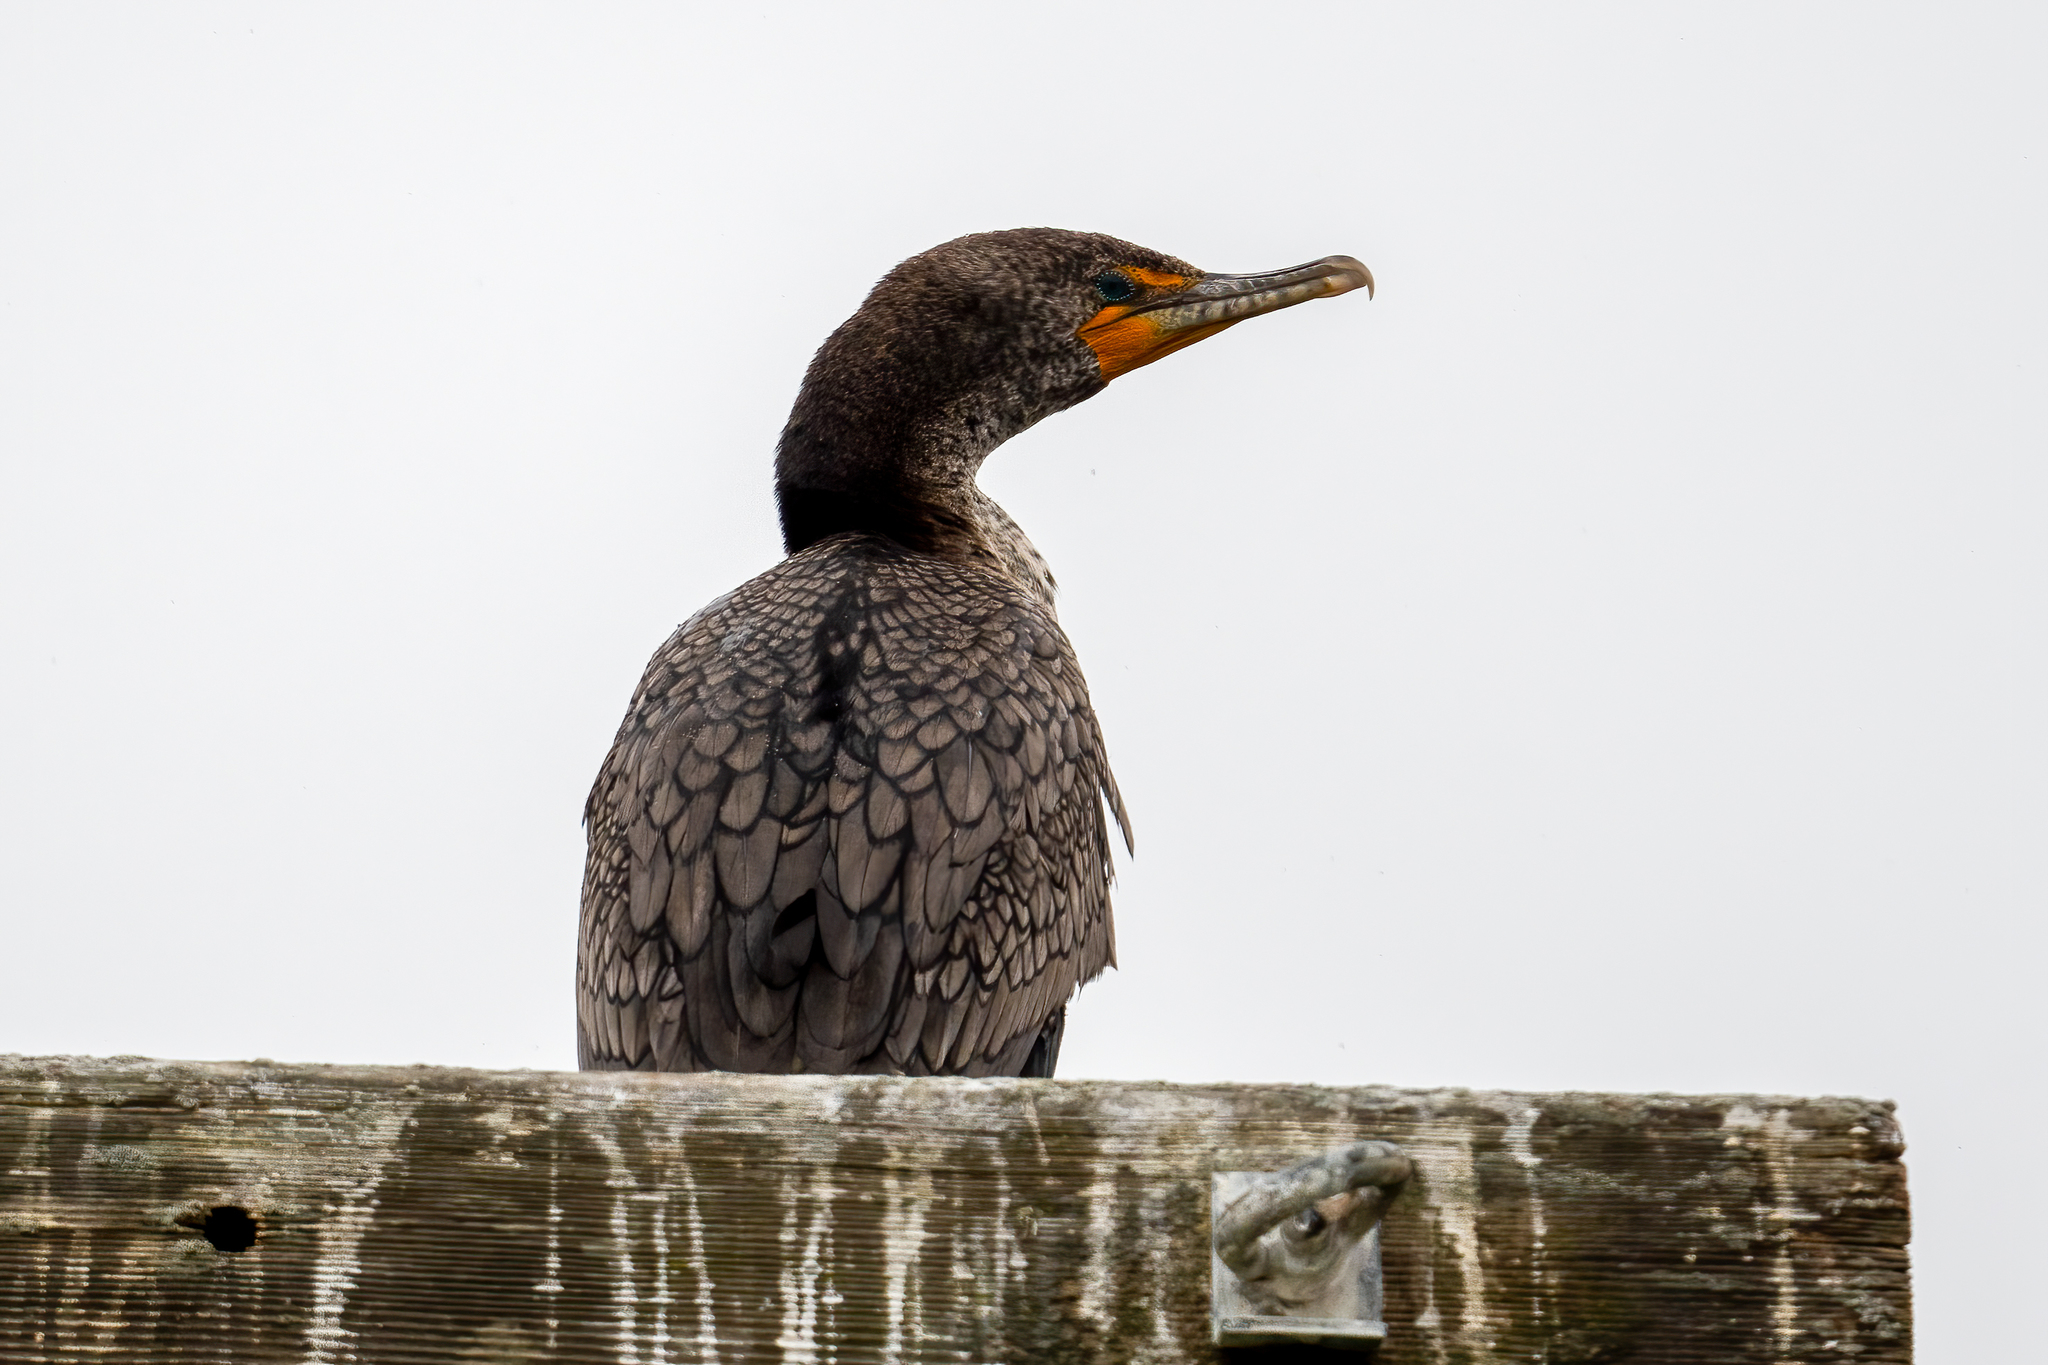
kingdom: Animalia
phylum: Chordata
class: Aves
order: Suliformes
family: Phalacrocoracidae
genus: Phalacrocorax
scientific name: Phalacrocorax auritus
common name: Double-crested cormorant
